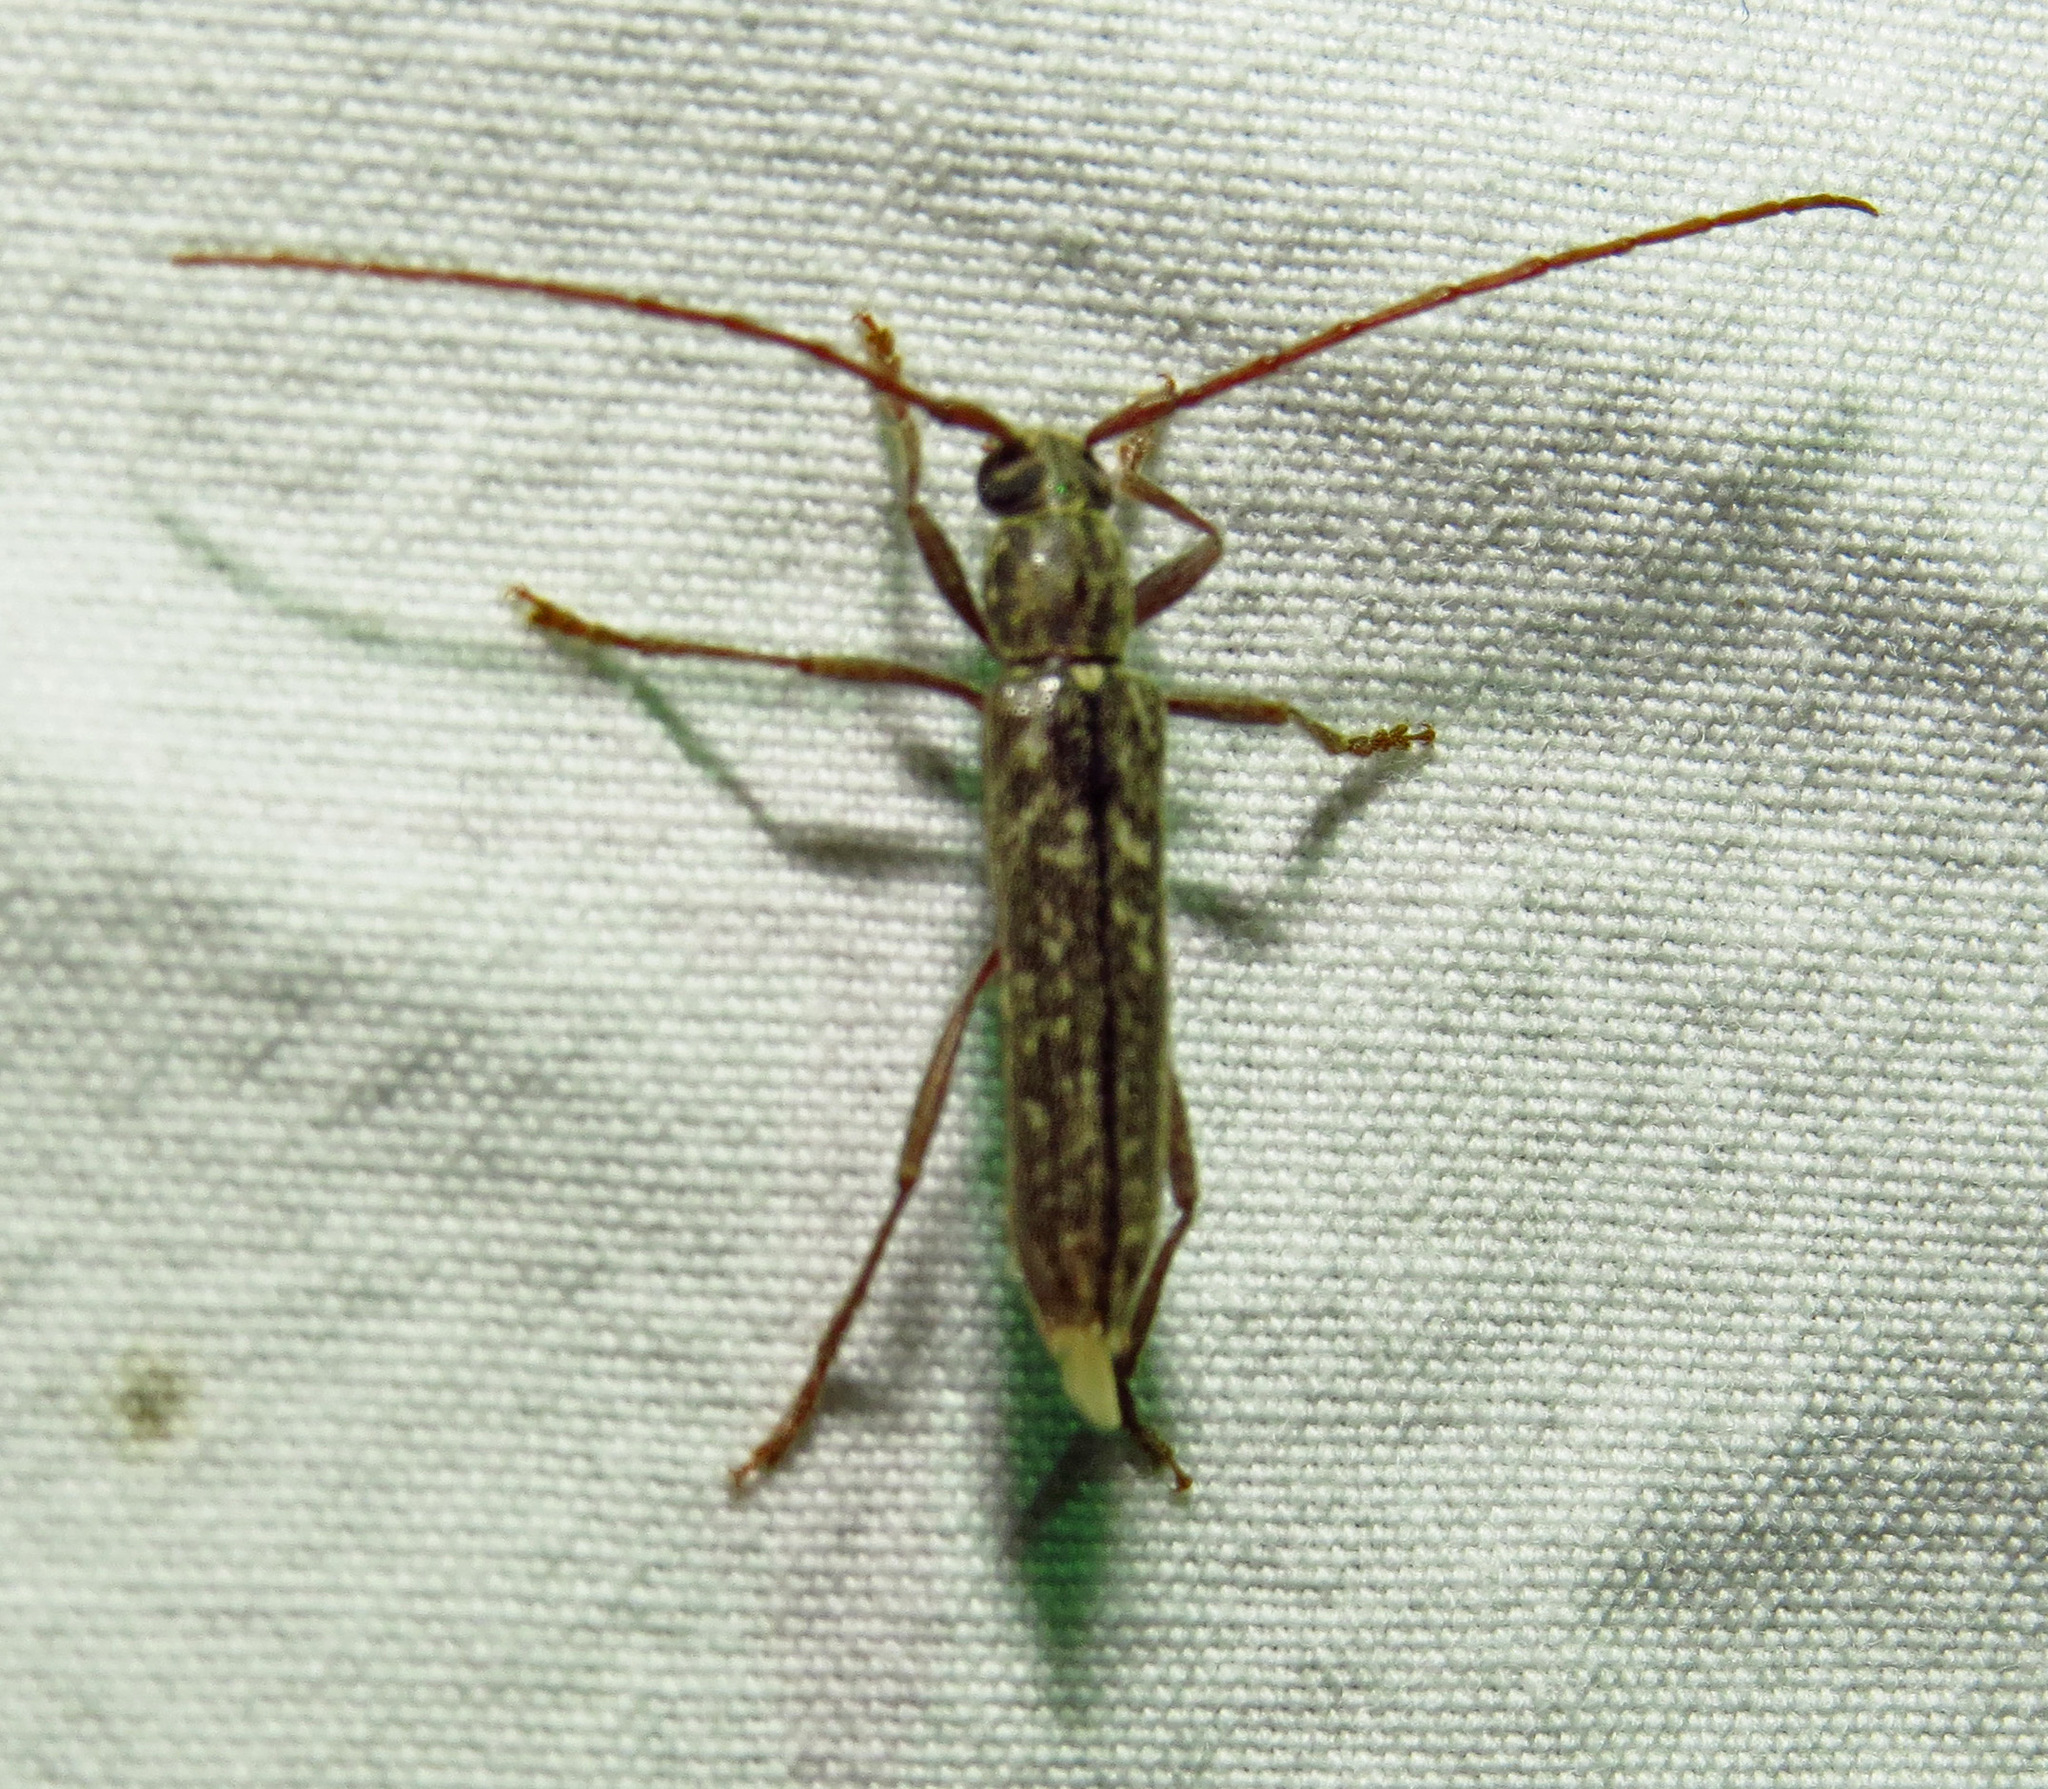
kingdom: Animalia
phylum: Arthropoda
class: Insecta
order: Coleoptera
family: Cerambycidae
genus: Anelaphus
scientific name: Anelaphus villosus
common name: Twig pruner
